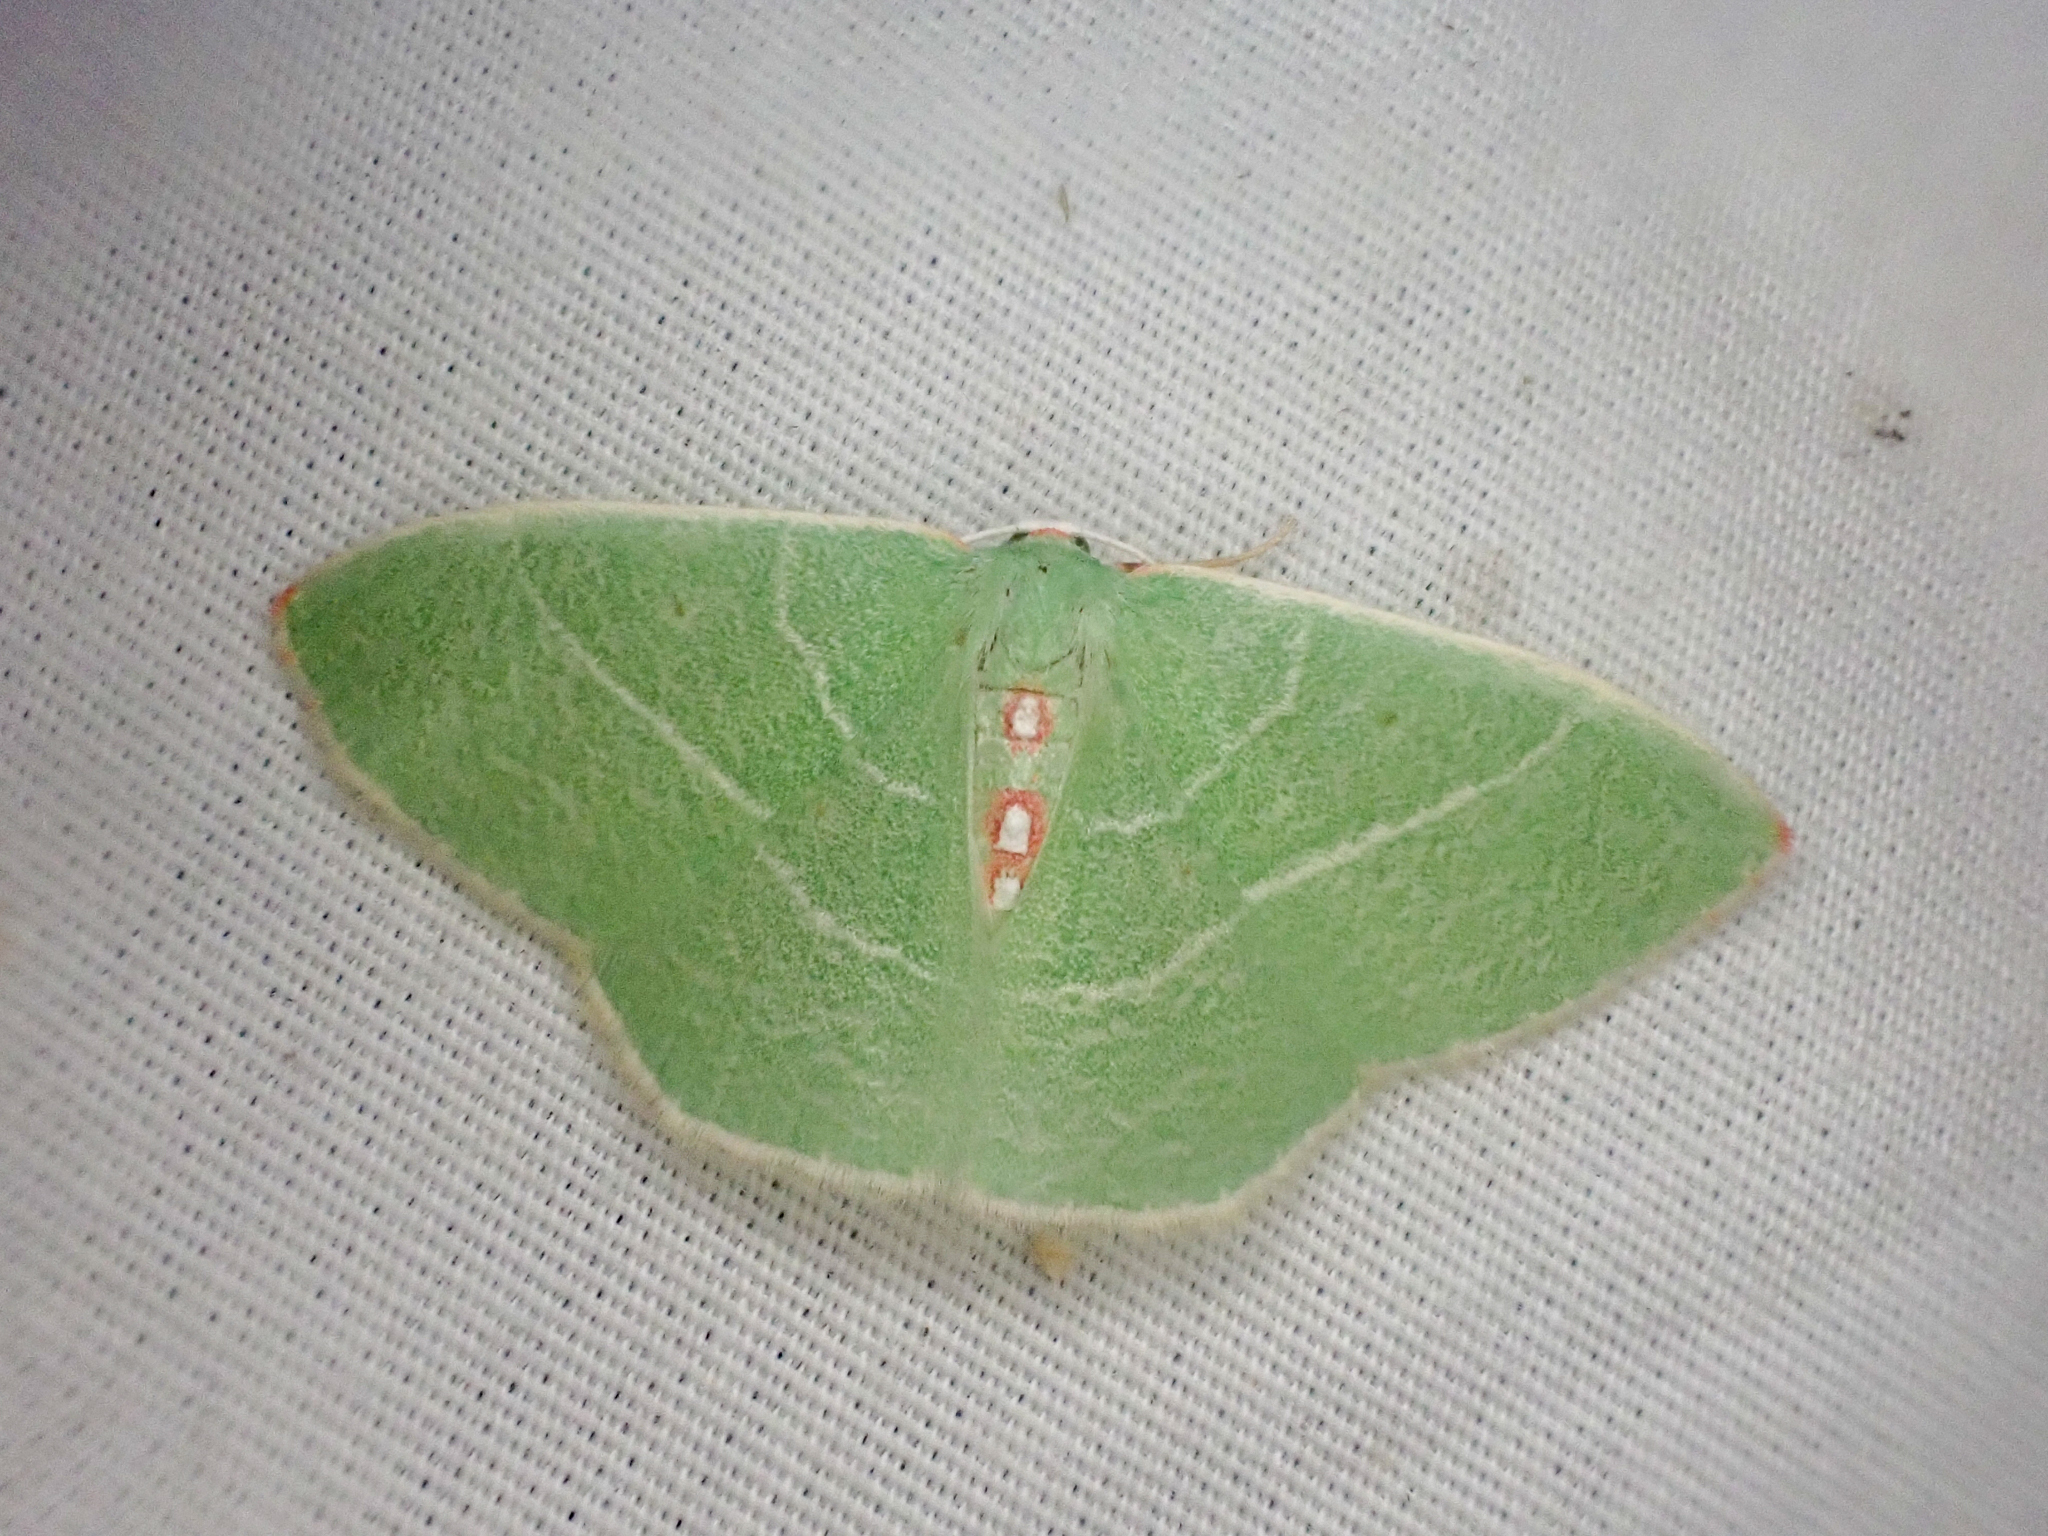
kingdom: Animalia
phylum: Arthropoda
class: Insecta
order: Lepidoptera
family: Geometridae
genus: Nemoria
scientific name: Nemoria darwiniata
